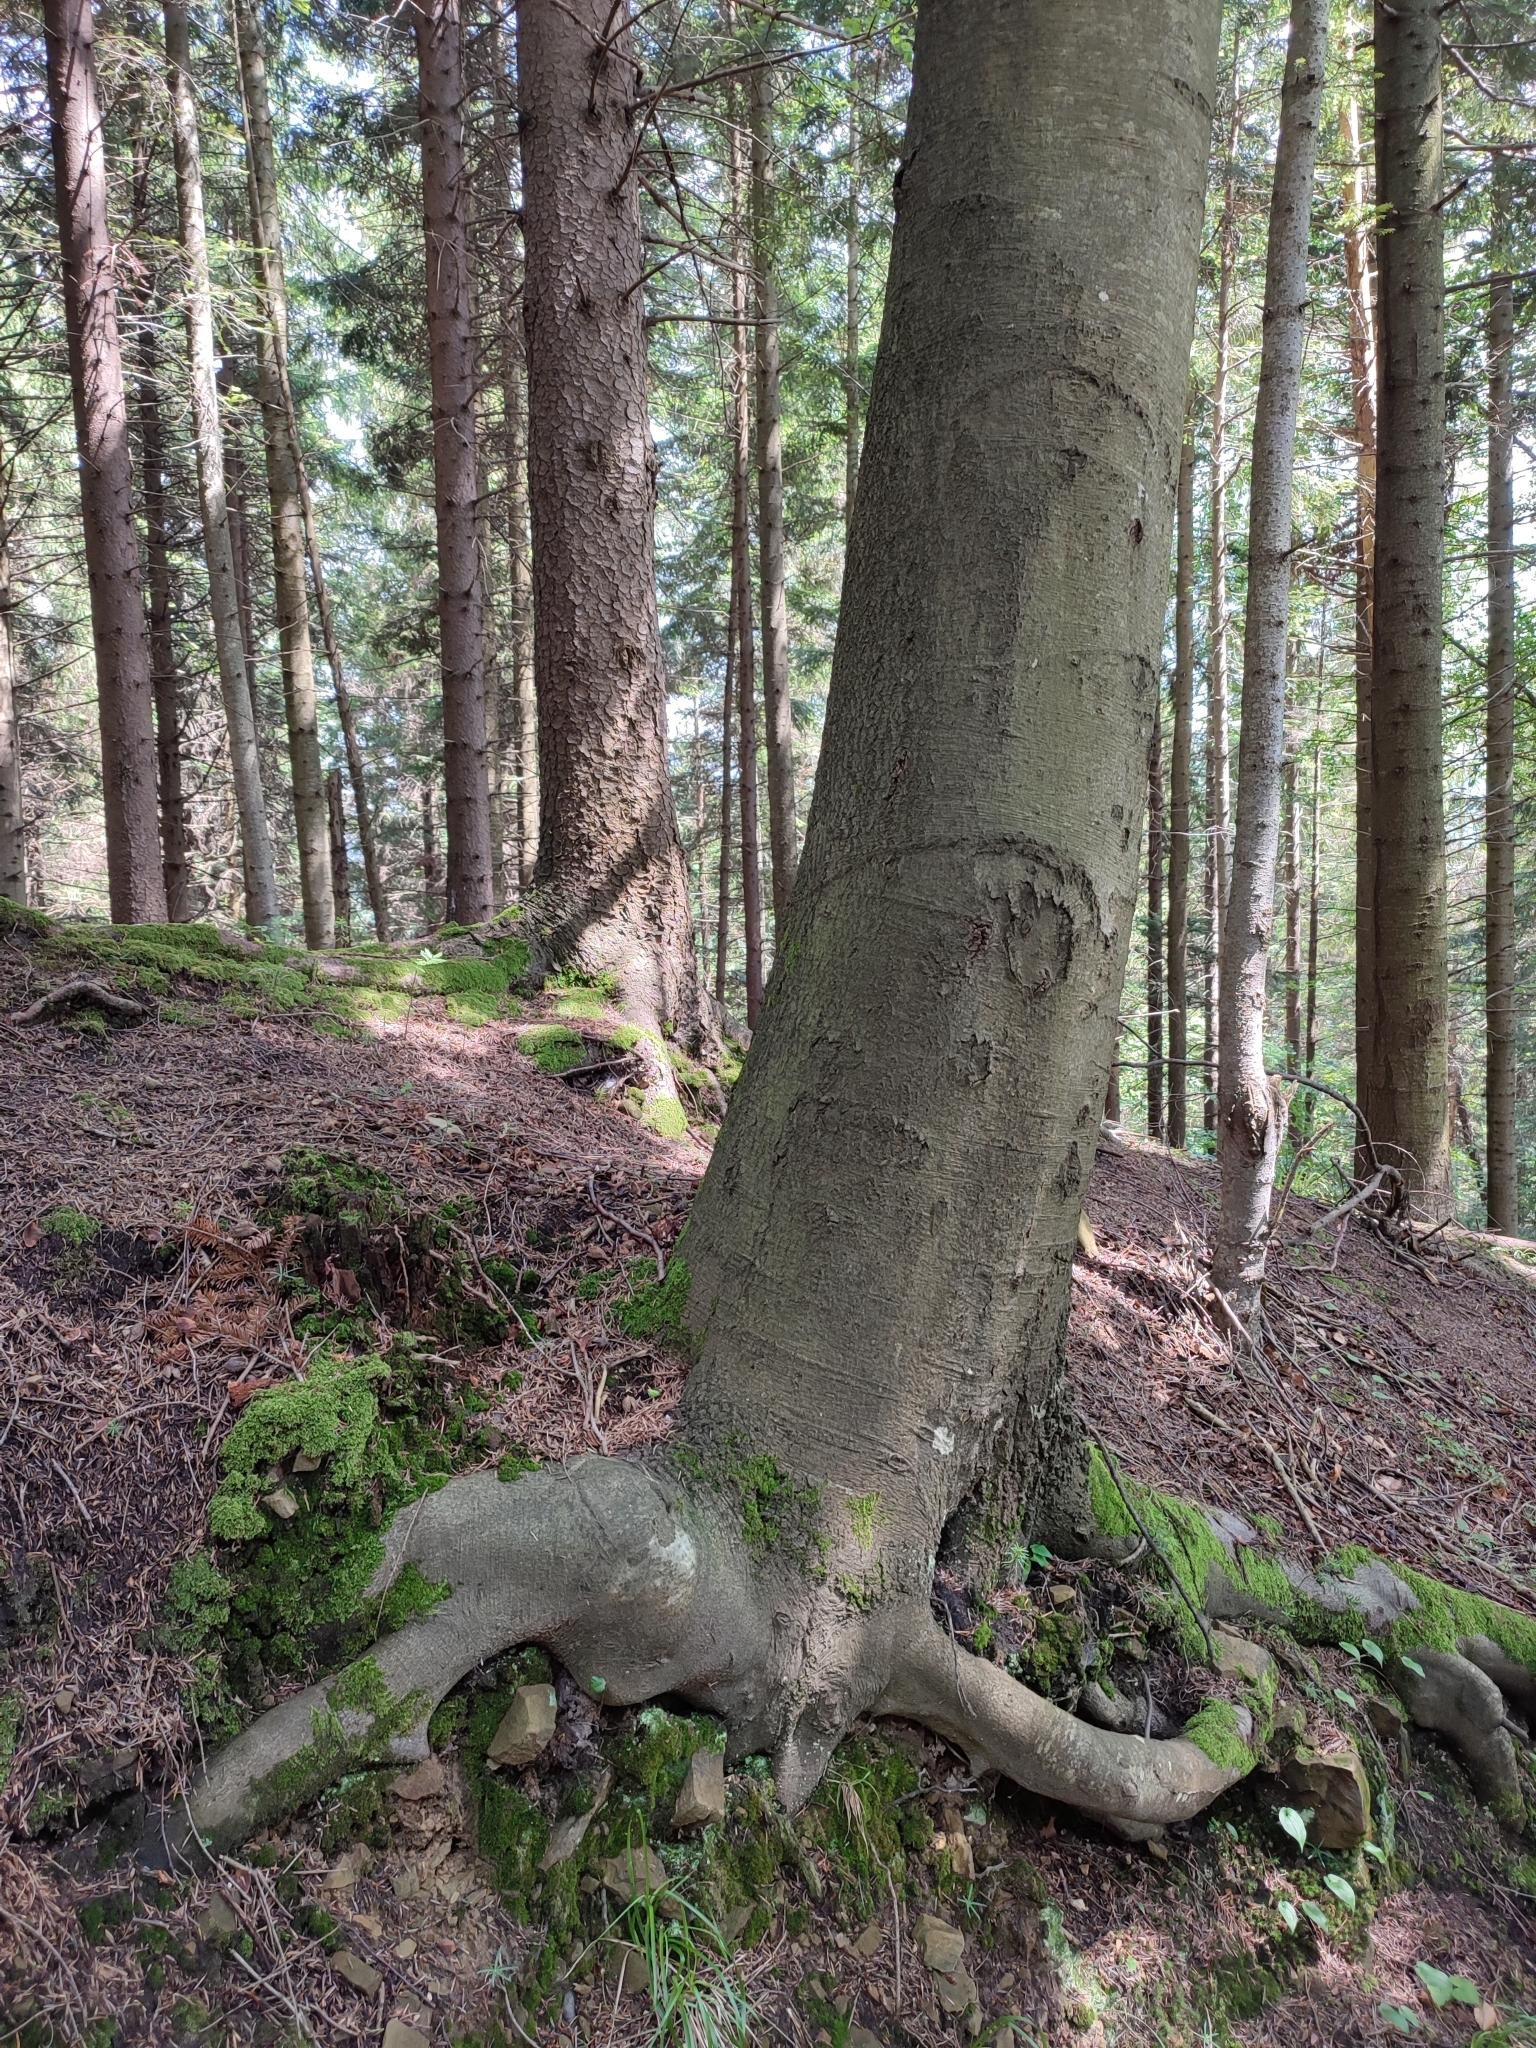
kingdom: Plantae
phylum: Tracheophyta
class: Magnoliopsida
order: Fagales
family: Fagaceae
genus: Fagus
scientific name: Fagus sylvatica
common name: Beech
